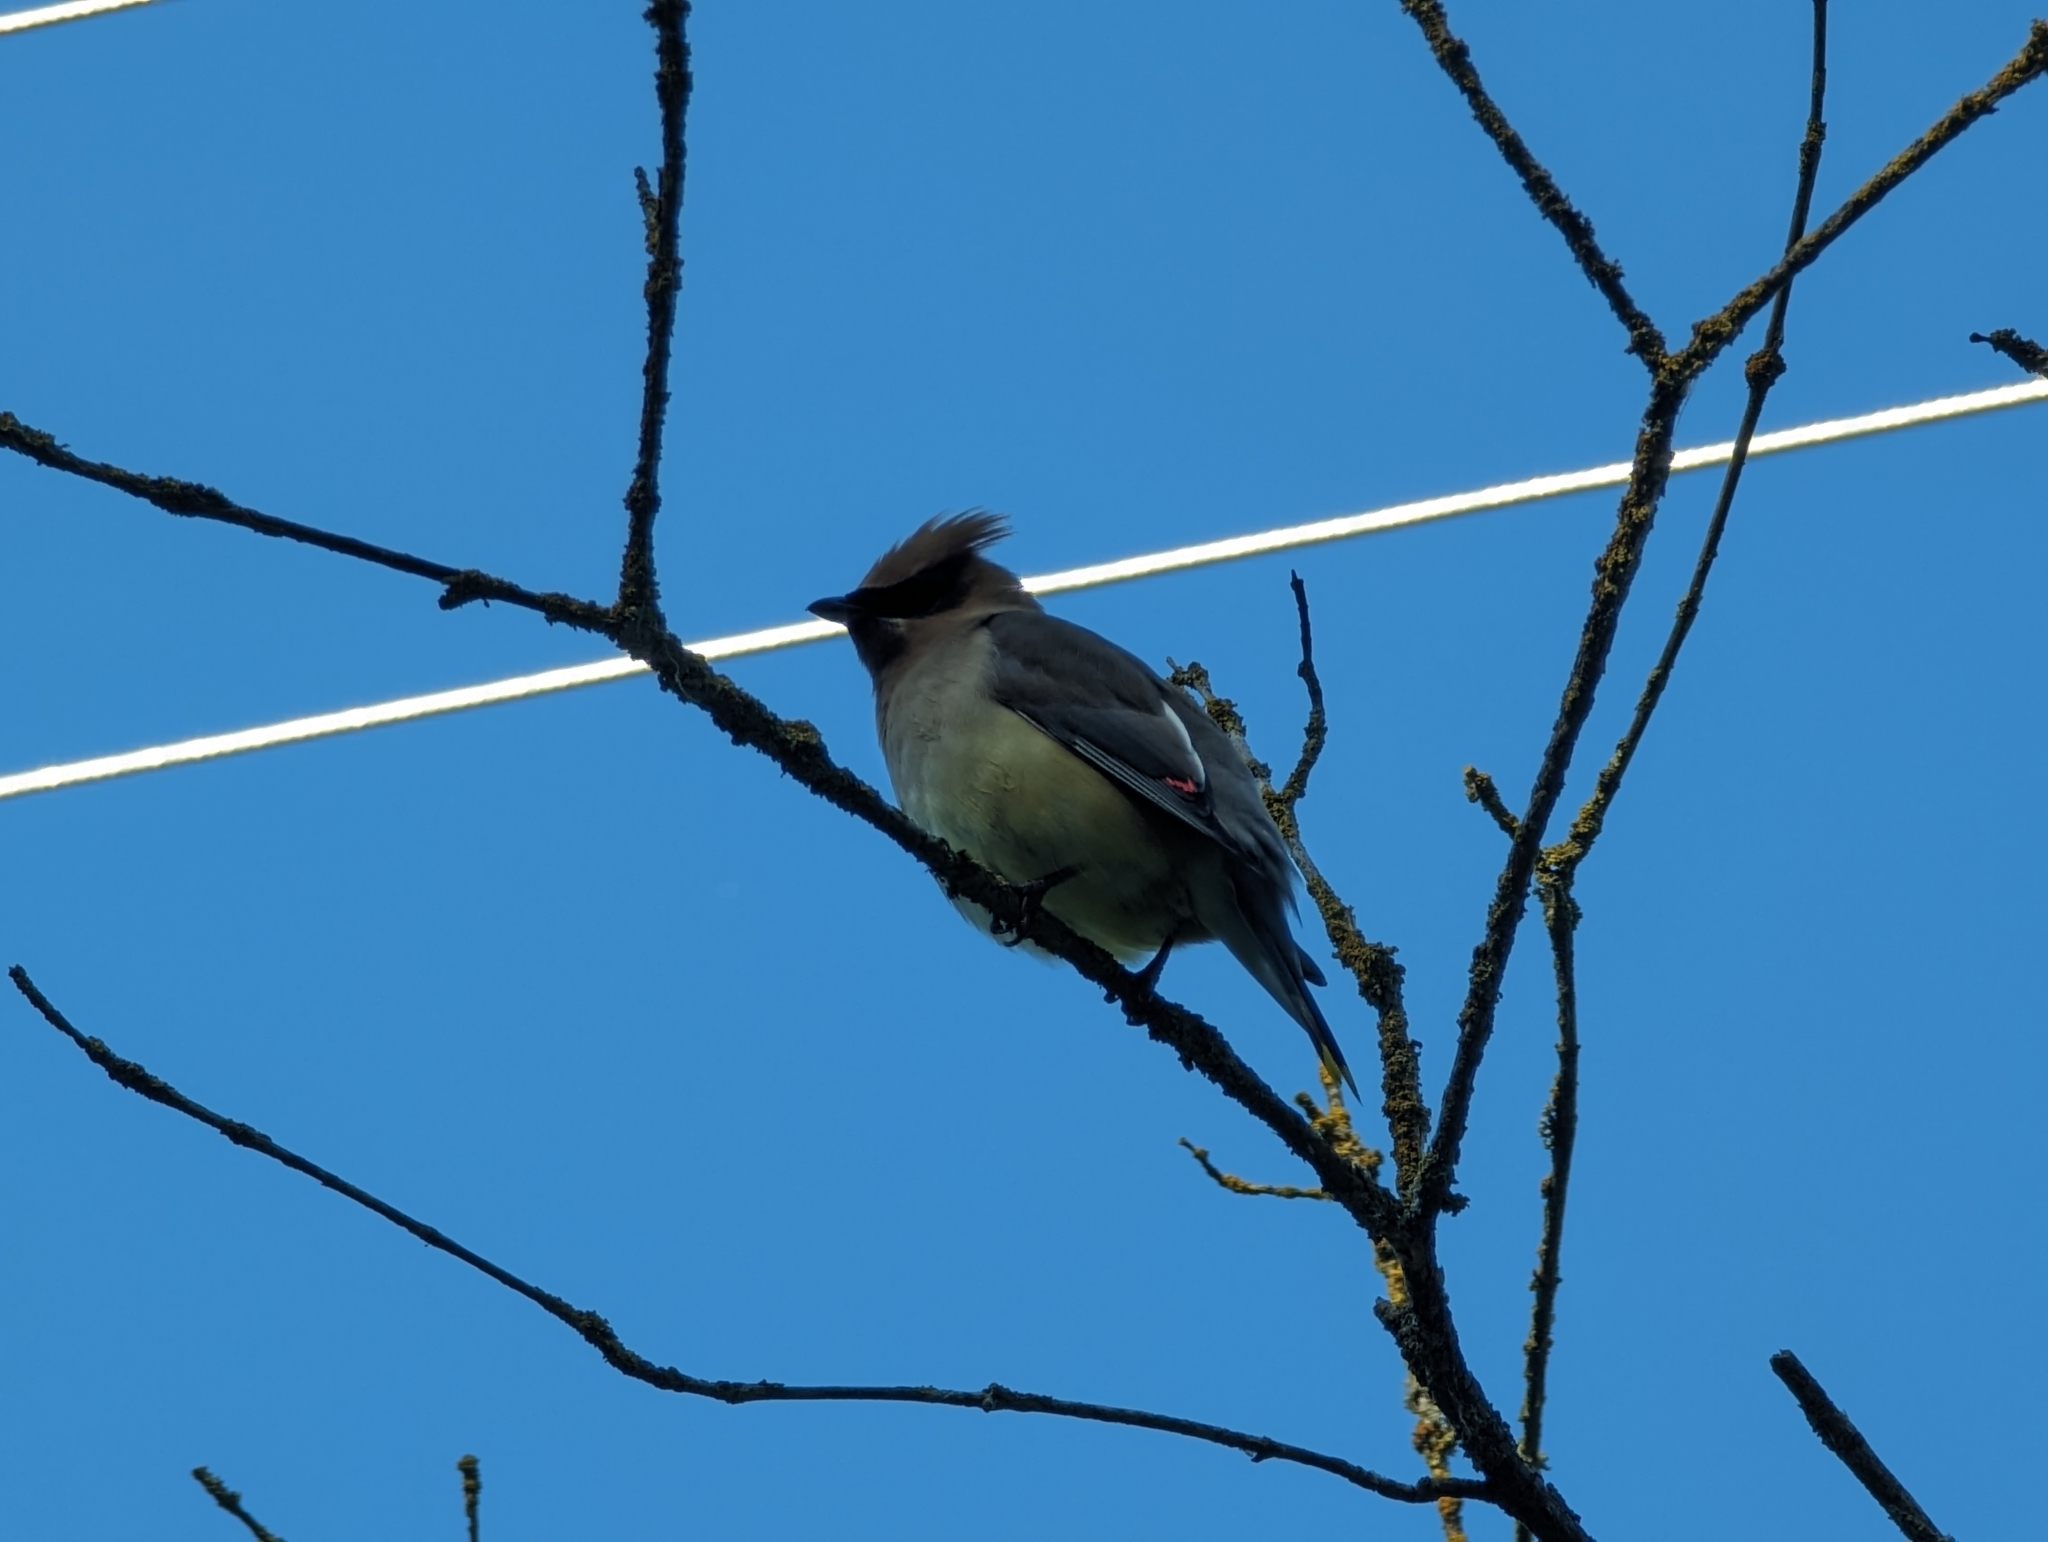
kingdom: Animalia
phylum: Chordata
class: Aves
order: Passeriformes
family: Bombycillidae
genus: Bombycilla
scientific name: Bombycilla cedrorum
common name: Cedar waxwing
